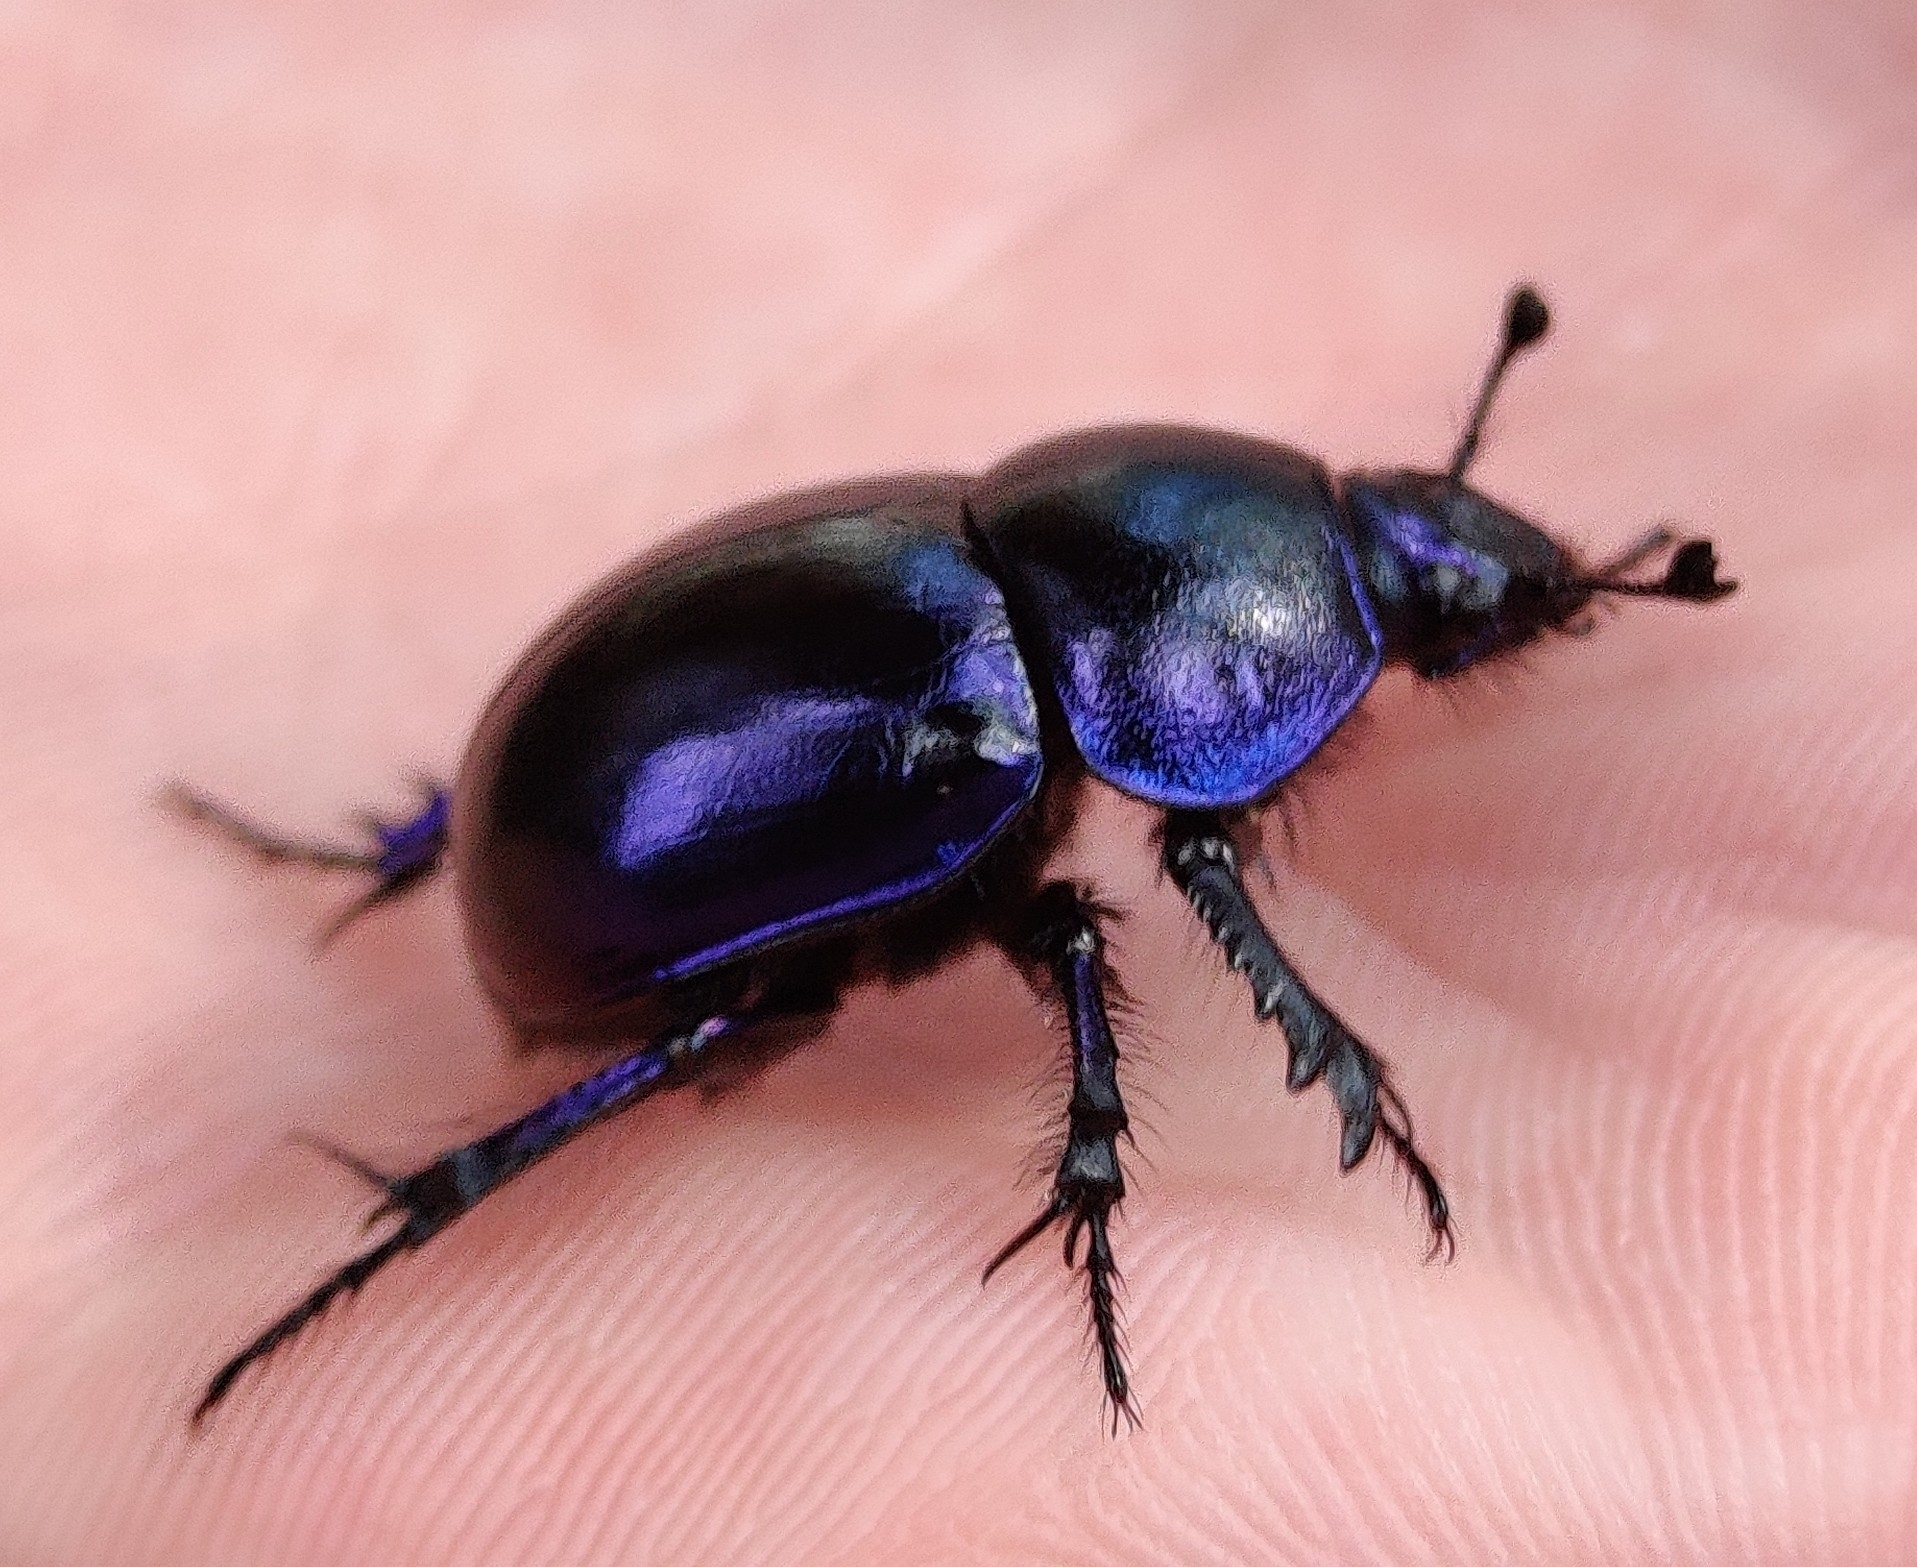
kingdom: Animalia
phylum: Arthropoda
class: Insecta
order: Coleoptera
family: Geotrupidae
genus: Trypocopris
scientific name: Trypocopris vernalis
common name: Spring dumbledor
